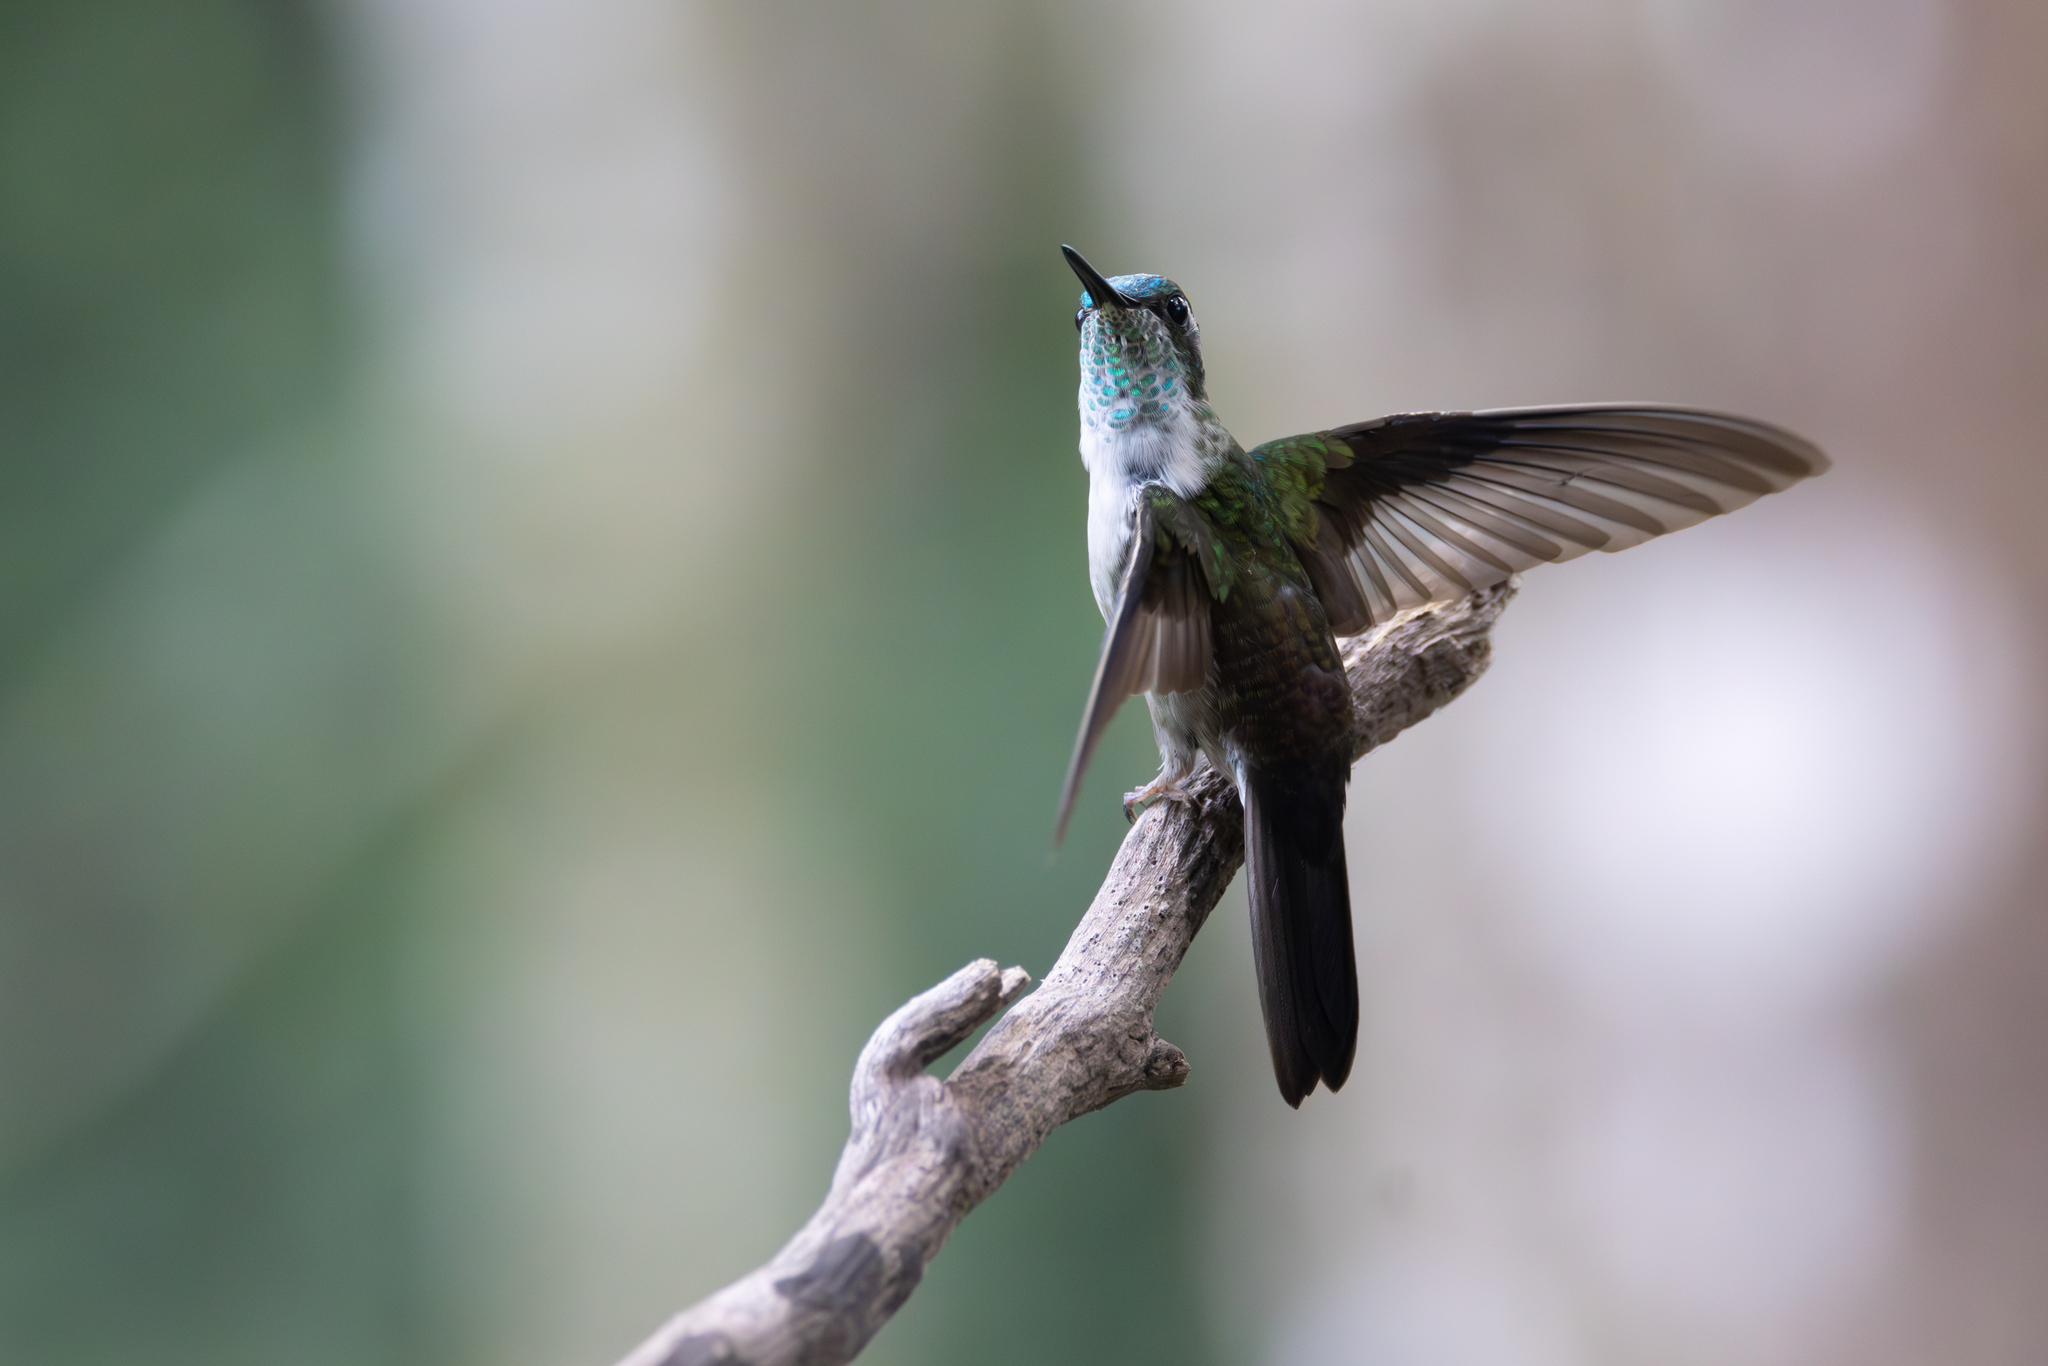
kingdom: Animalia
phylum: Chordata
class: Aves
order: Apodiformes
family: Trochilidae
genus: Lampornis
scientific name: Lampornis viridipallens
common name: Green-throated mountain-gem
